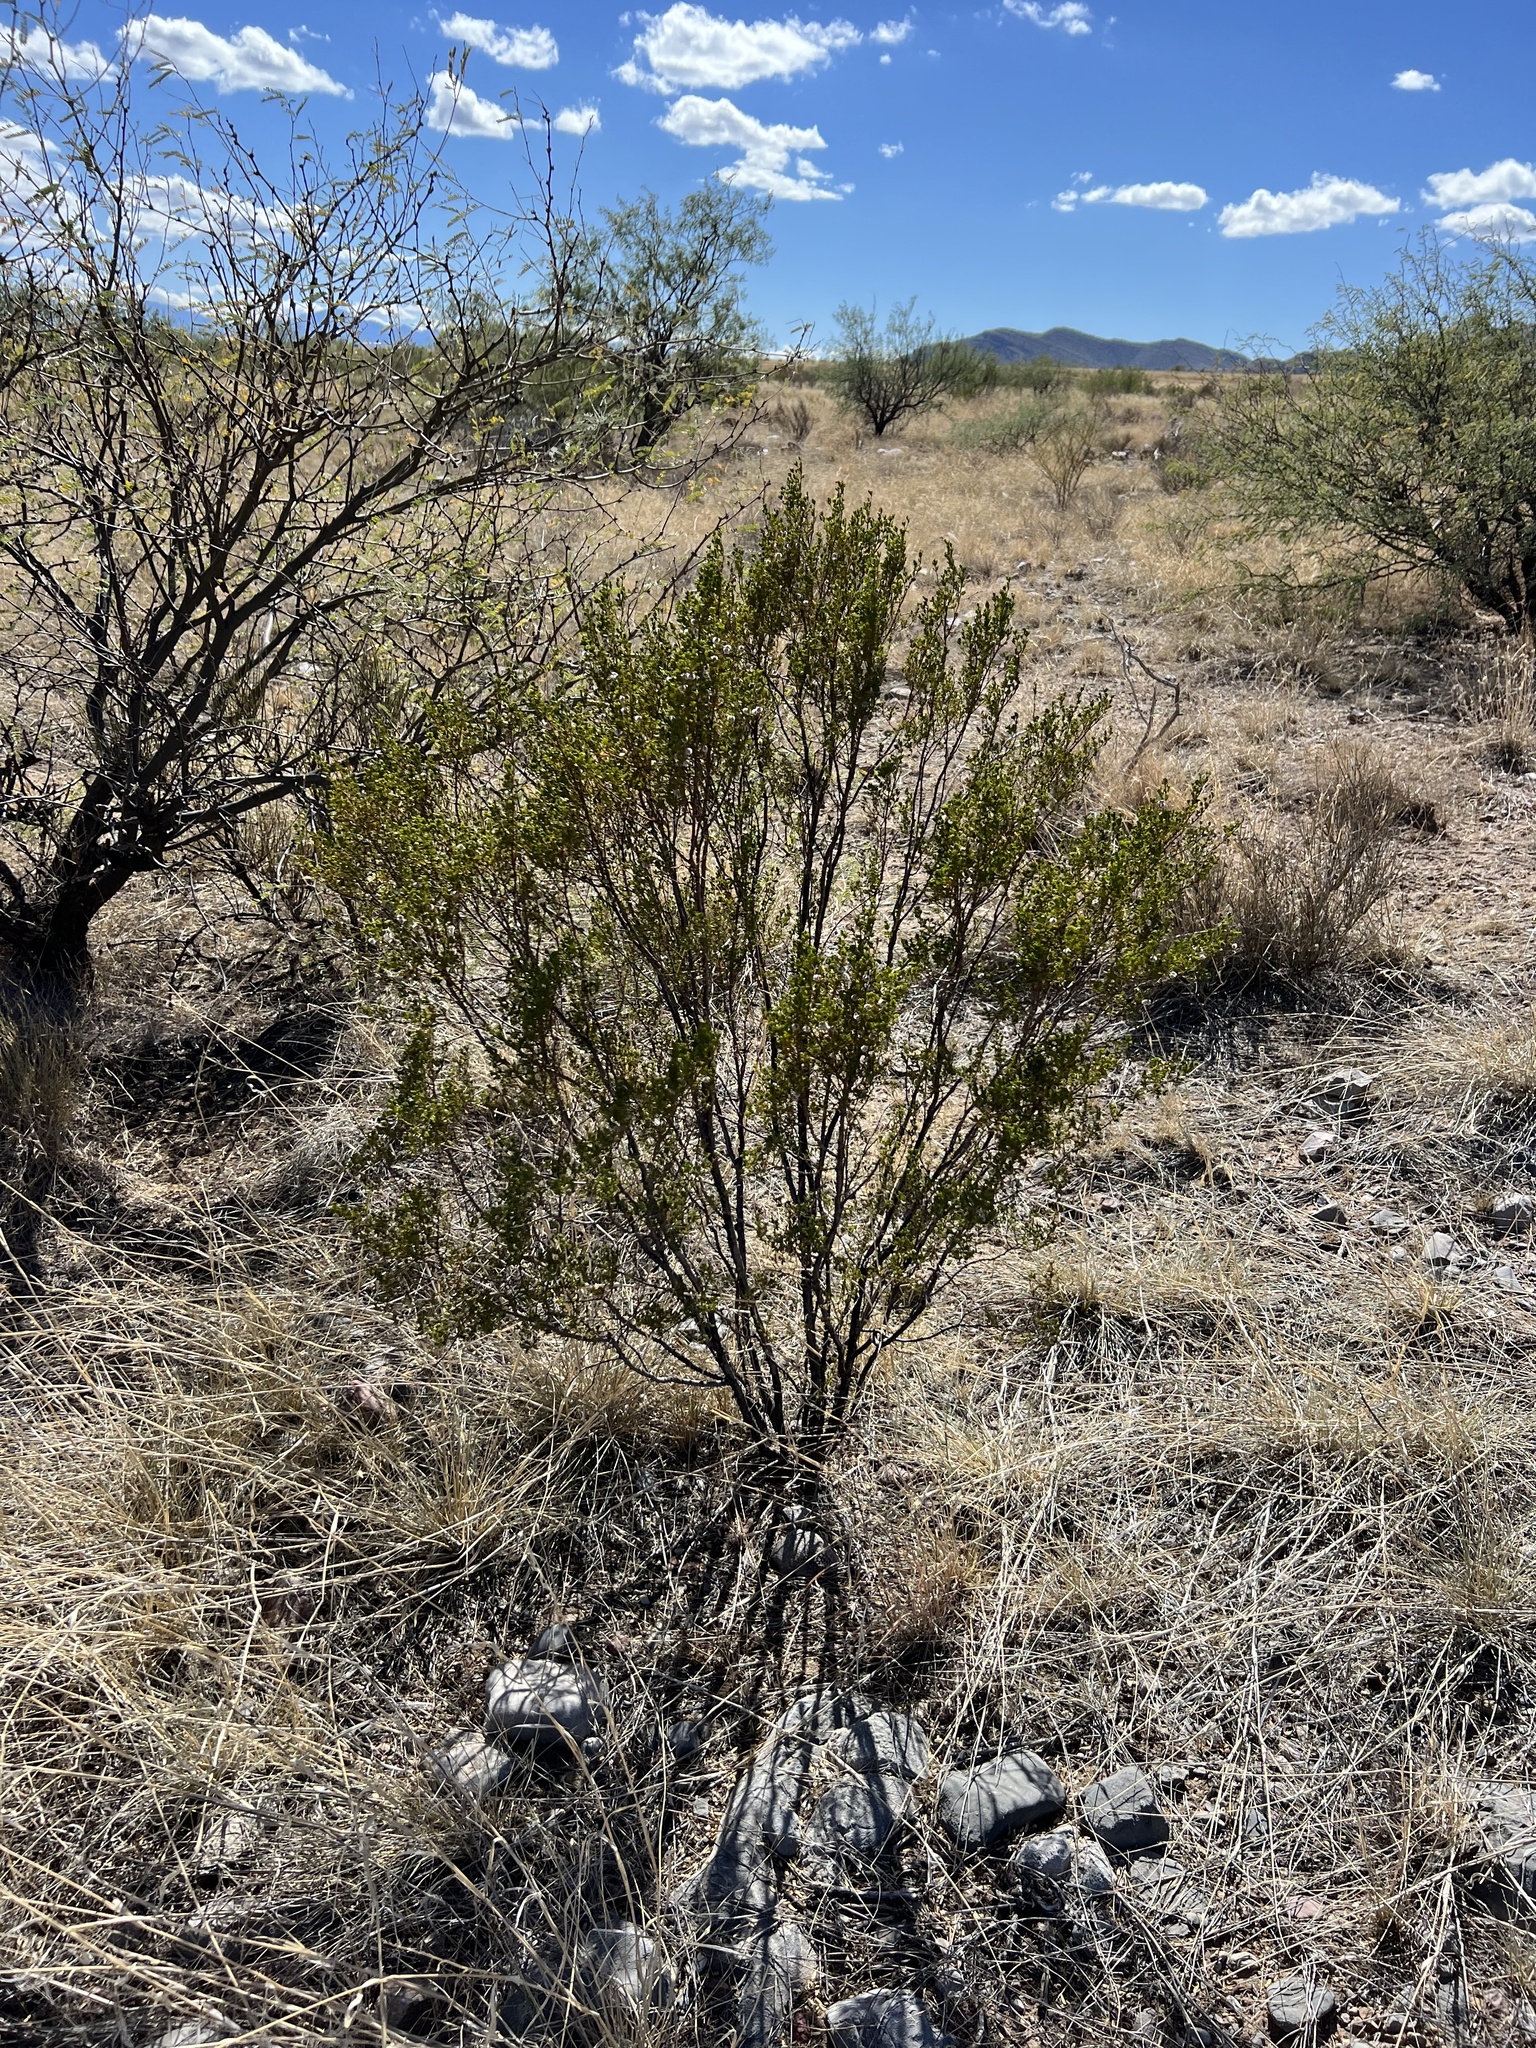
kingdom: Plantae
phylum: Tracheophyta
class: Magnoliopsida
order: Zygophyllales
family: Zygophyllaceae
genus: Larrea
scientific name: Larrea tridentata
